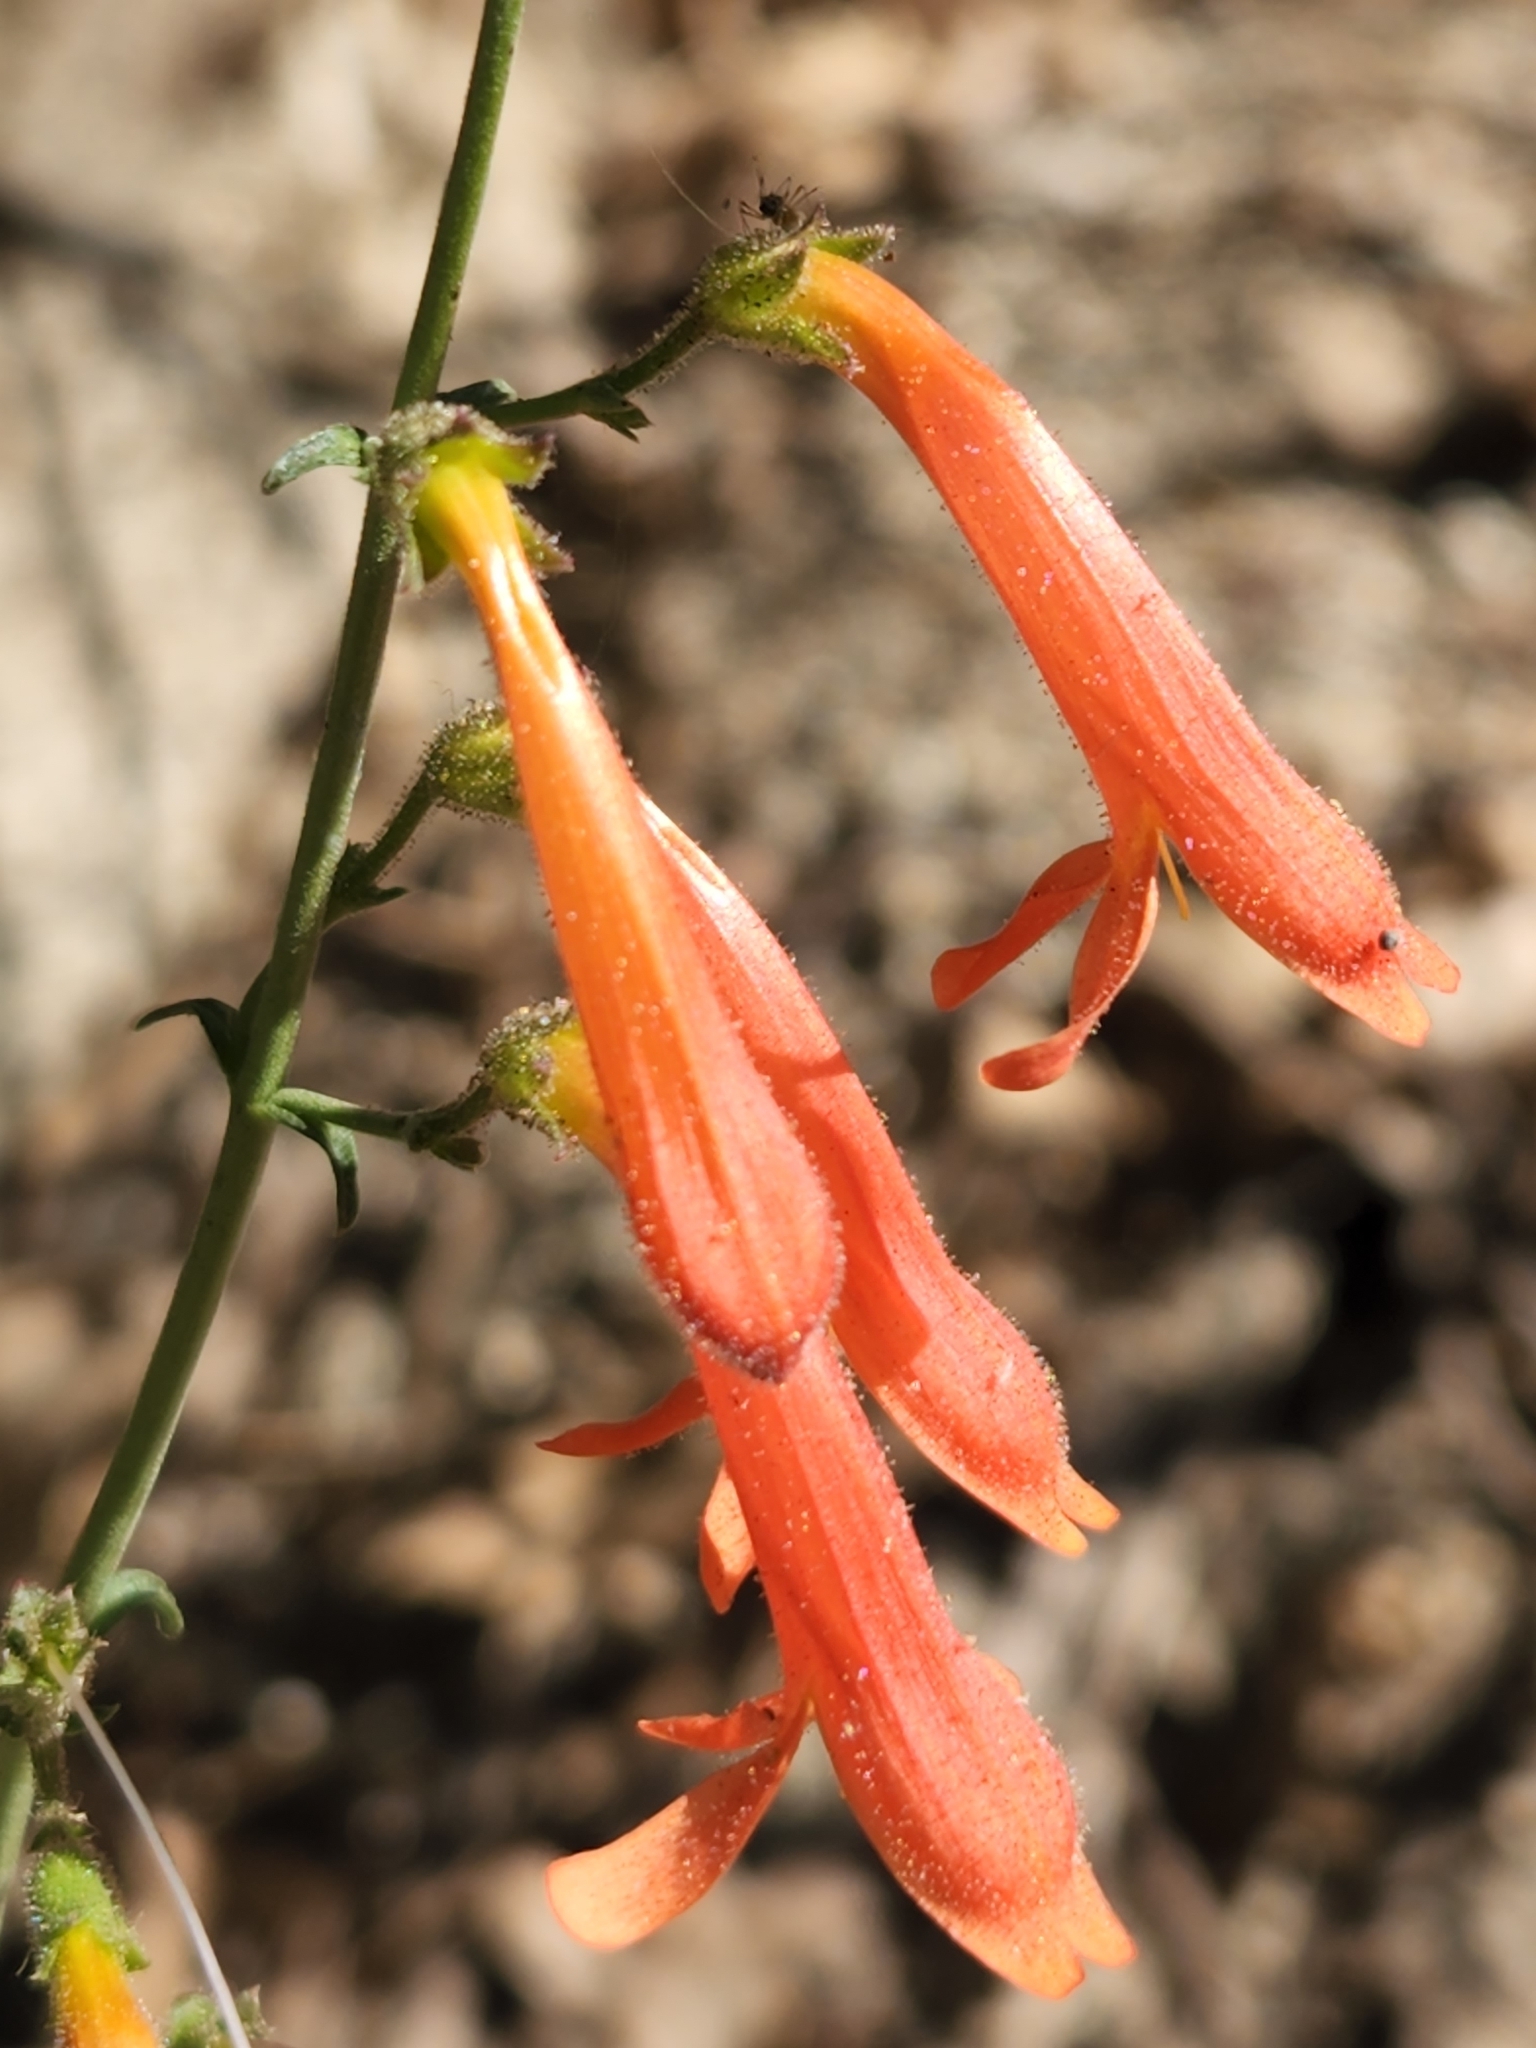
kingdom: Plantae
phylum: Tracheophyta
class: Magnoliopsida
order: Lamiales
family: Plantaginaceae
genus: Penstemon
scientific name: Penstemon rostriflorus
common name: Bridges's penstemon
